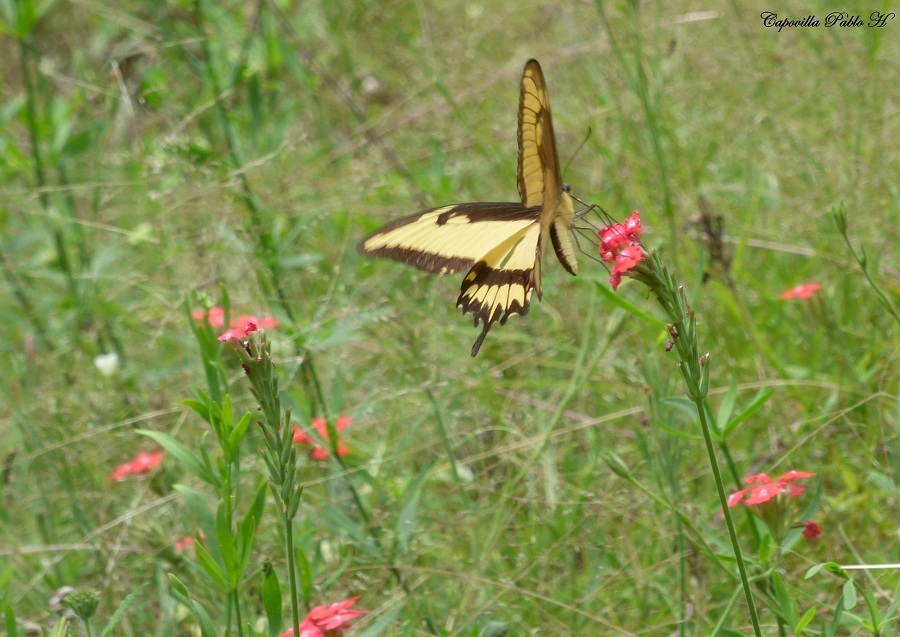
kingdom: Animalia
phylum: Arthropoda
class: Insecta
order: Lepidoptera
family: Papilionidae
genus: Papilio
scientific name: Papilio astyalus
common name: Astyalus swallowtail
